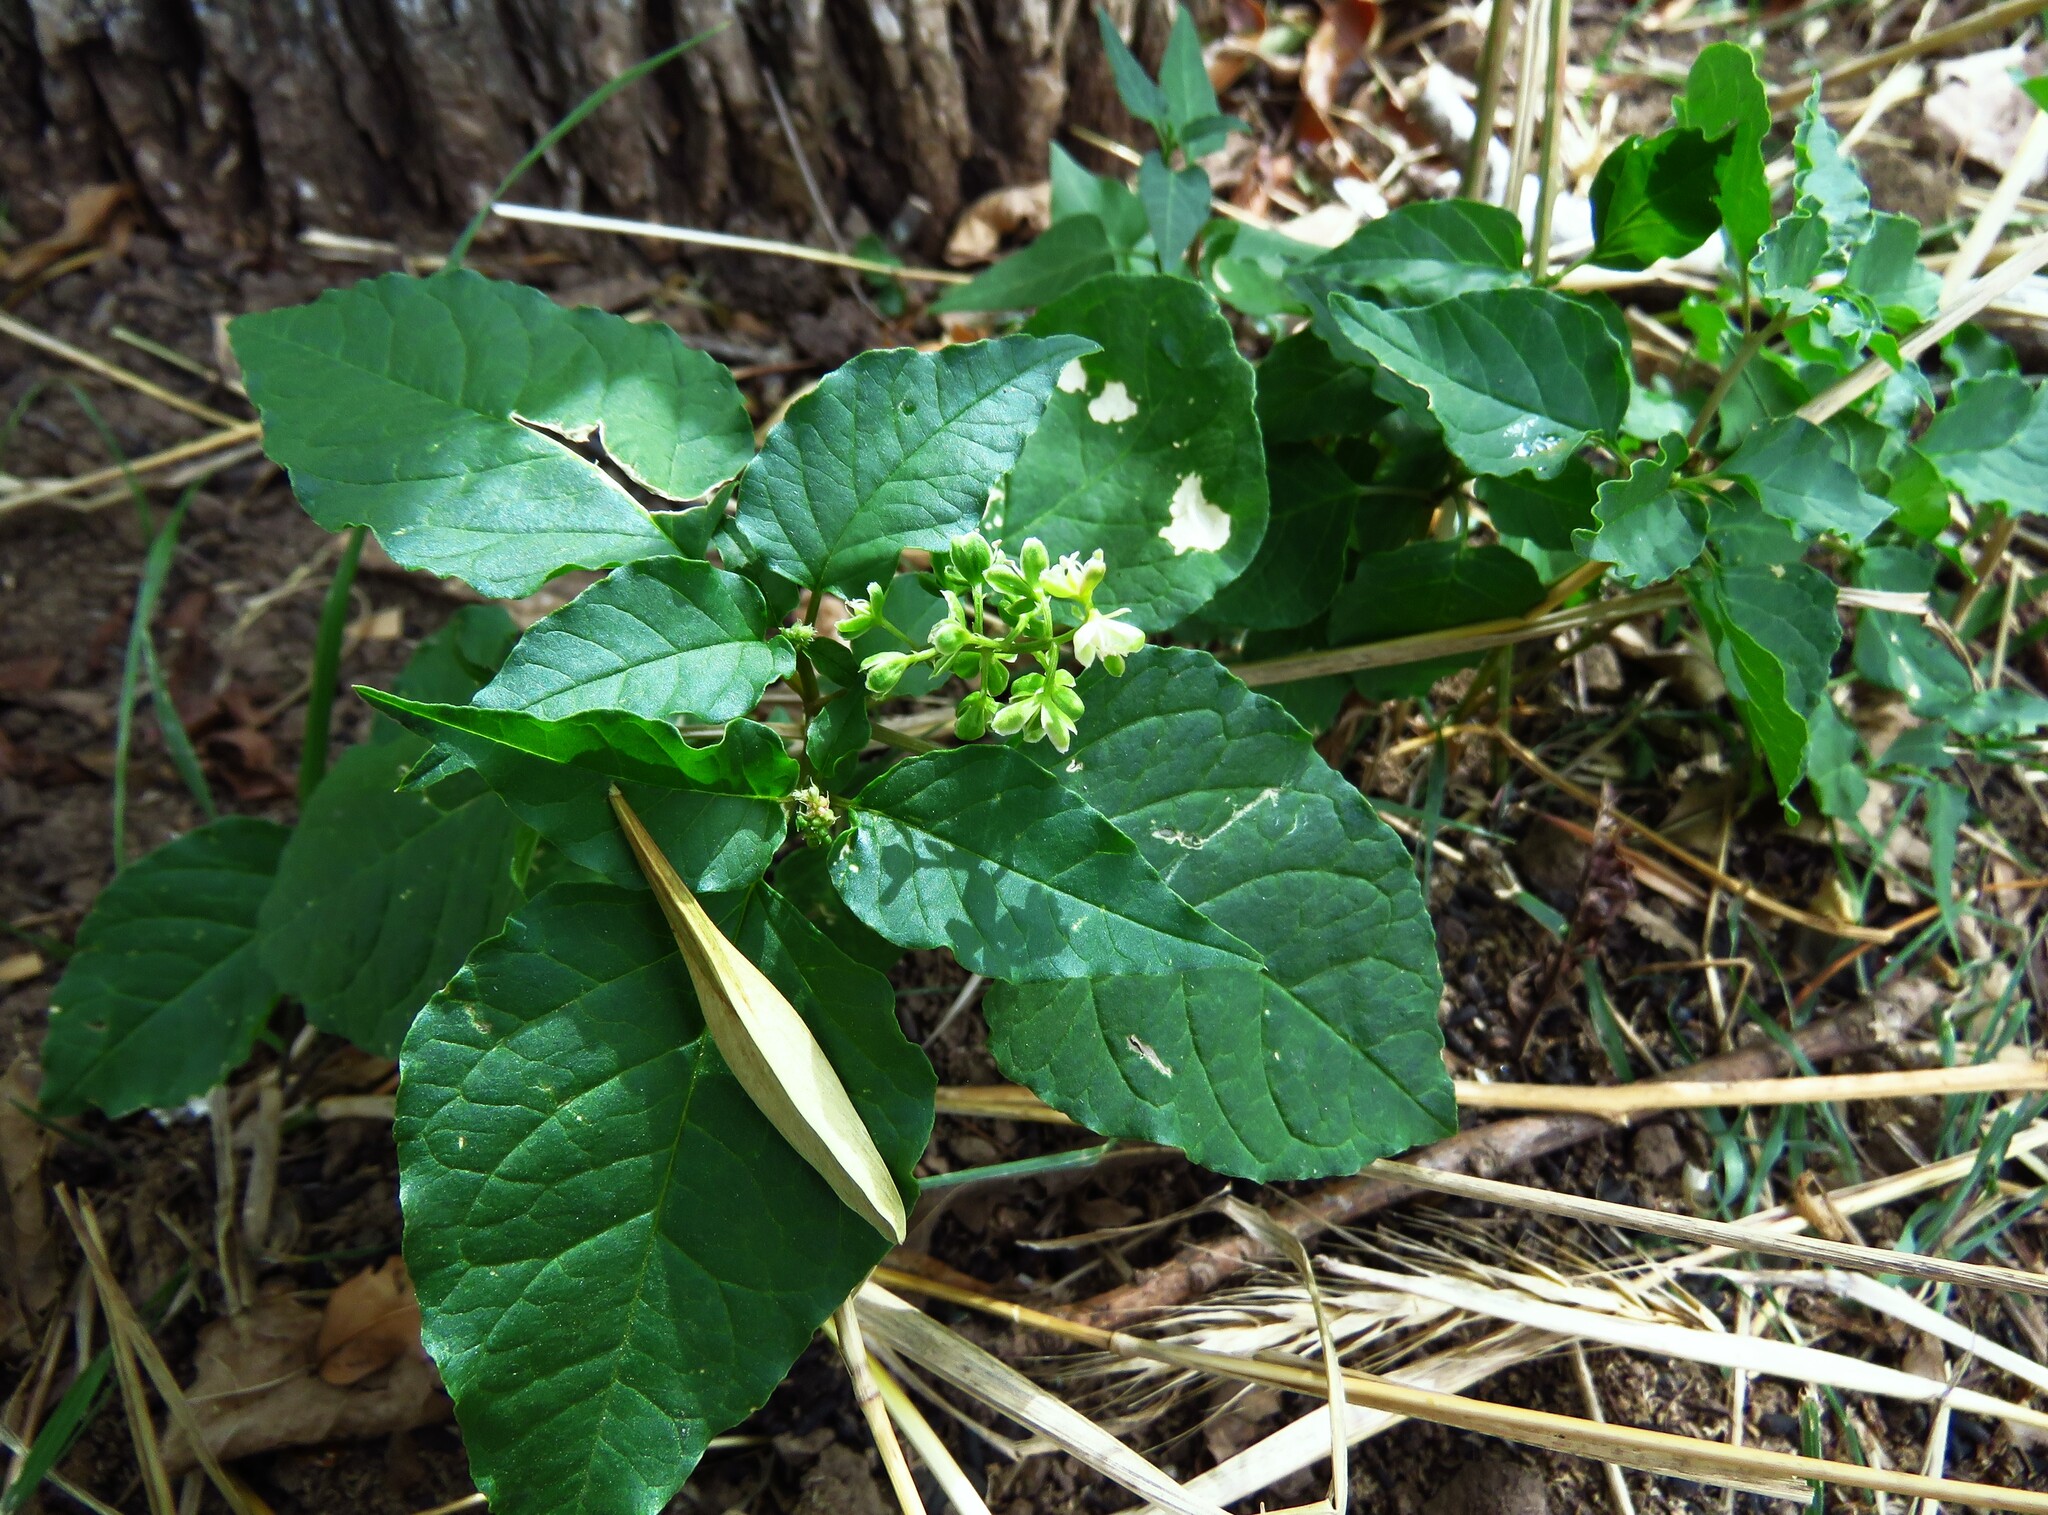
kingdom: Plantae
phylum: Tracheophyta
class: Magnoliopsida
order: Caryophyllales
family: Phytolaccaceae
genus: Rivina
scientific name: Rivina humilis
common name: Rougeplant
